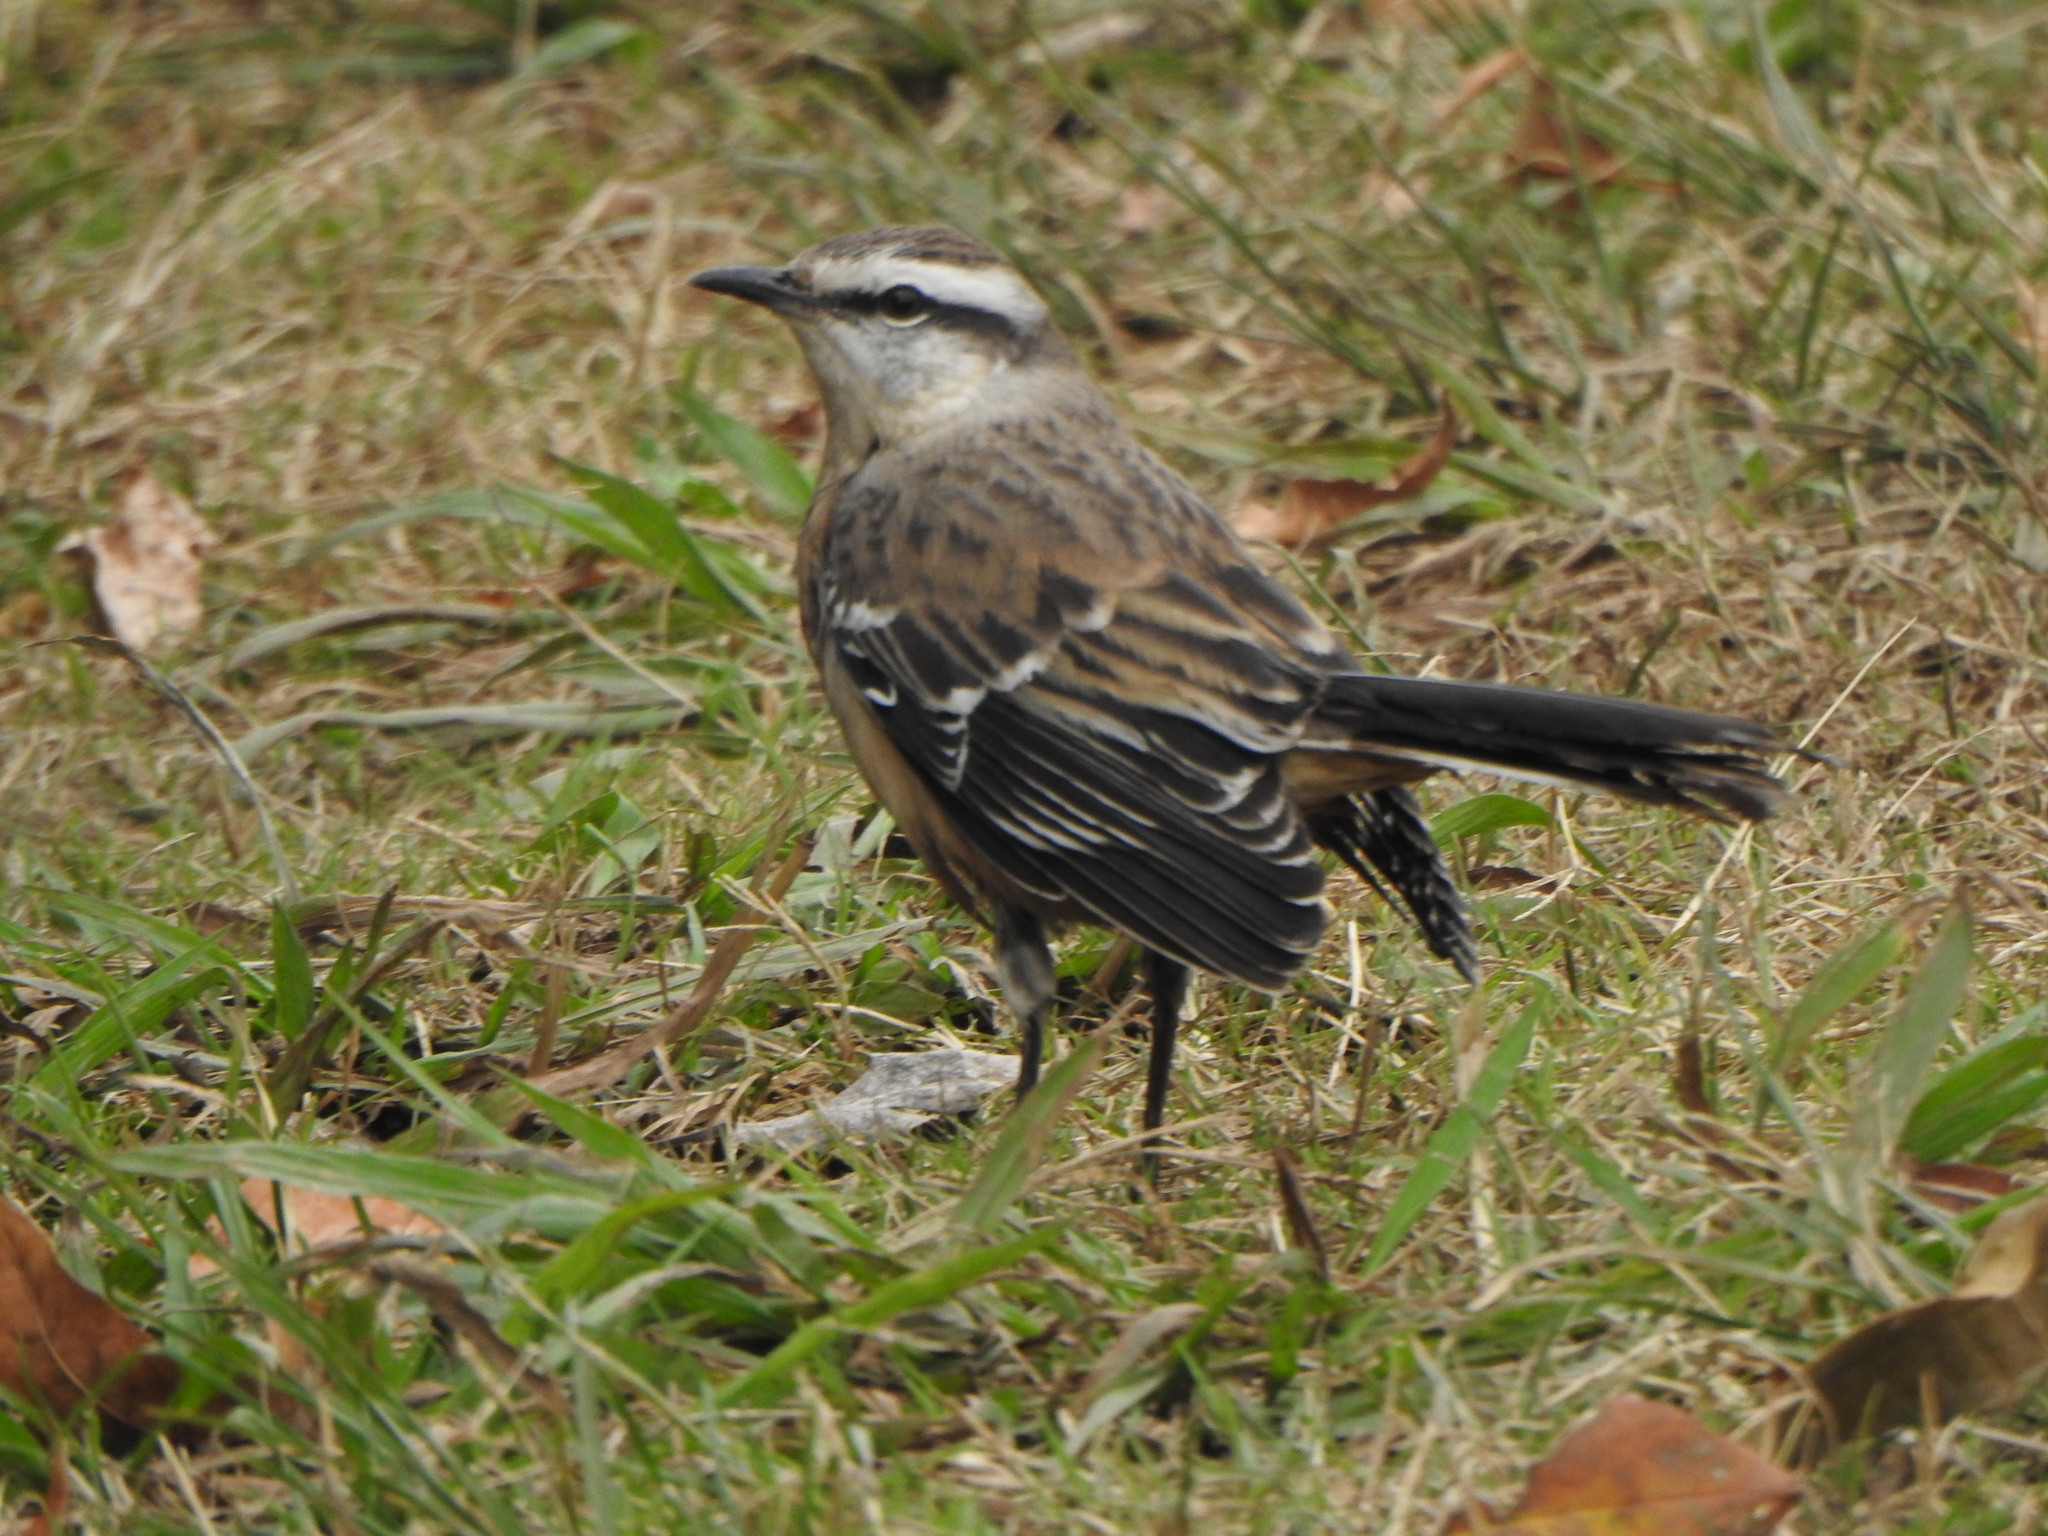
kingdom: Animalia
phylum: Chordata
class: Aves
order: Passeriformes
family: Mimidae
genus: Mimus
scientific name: Mimus saturninus
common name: Chalk-browed mockingbird
